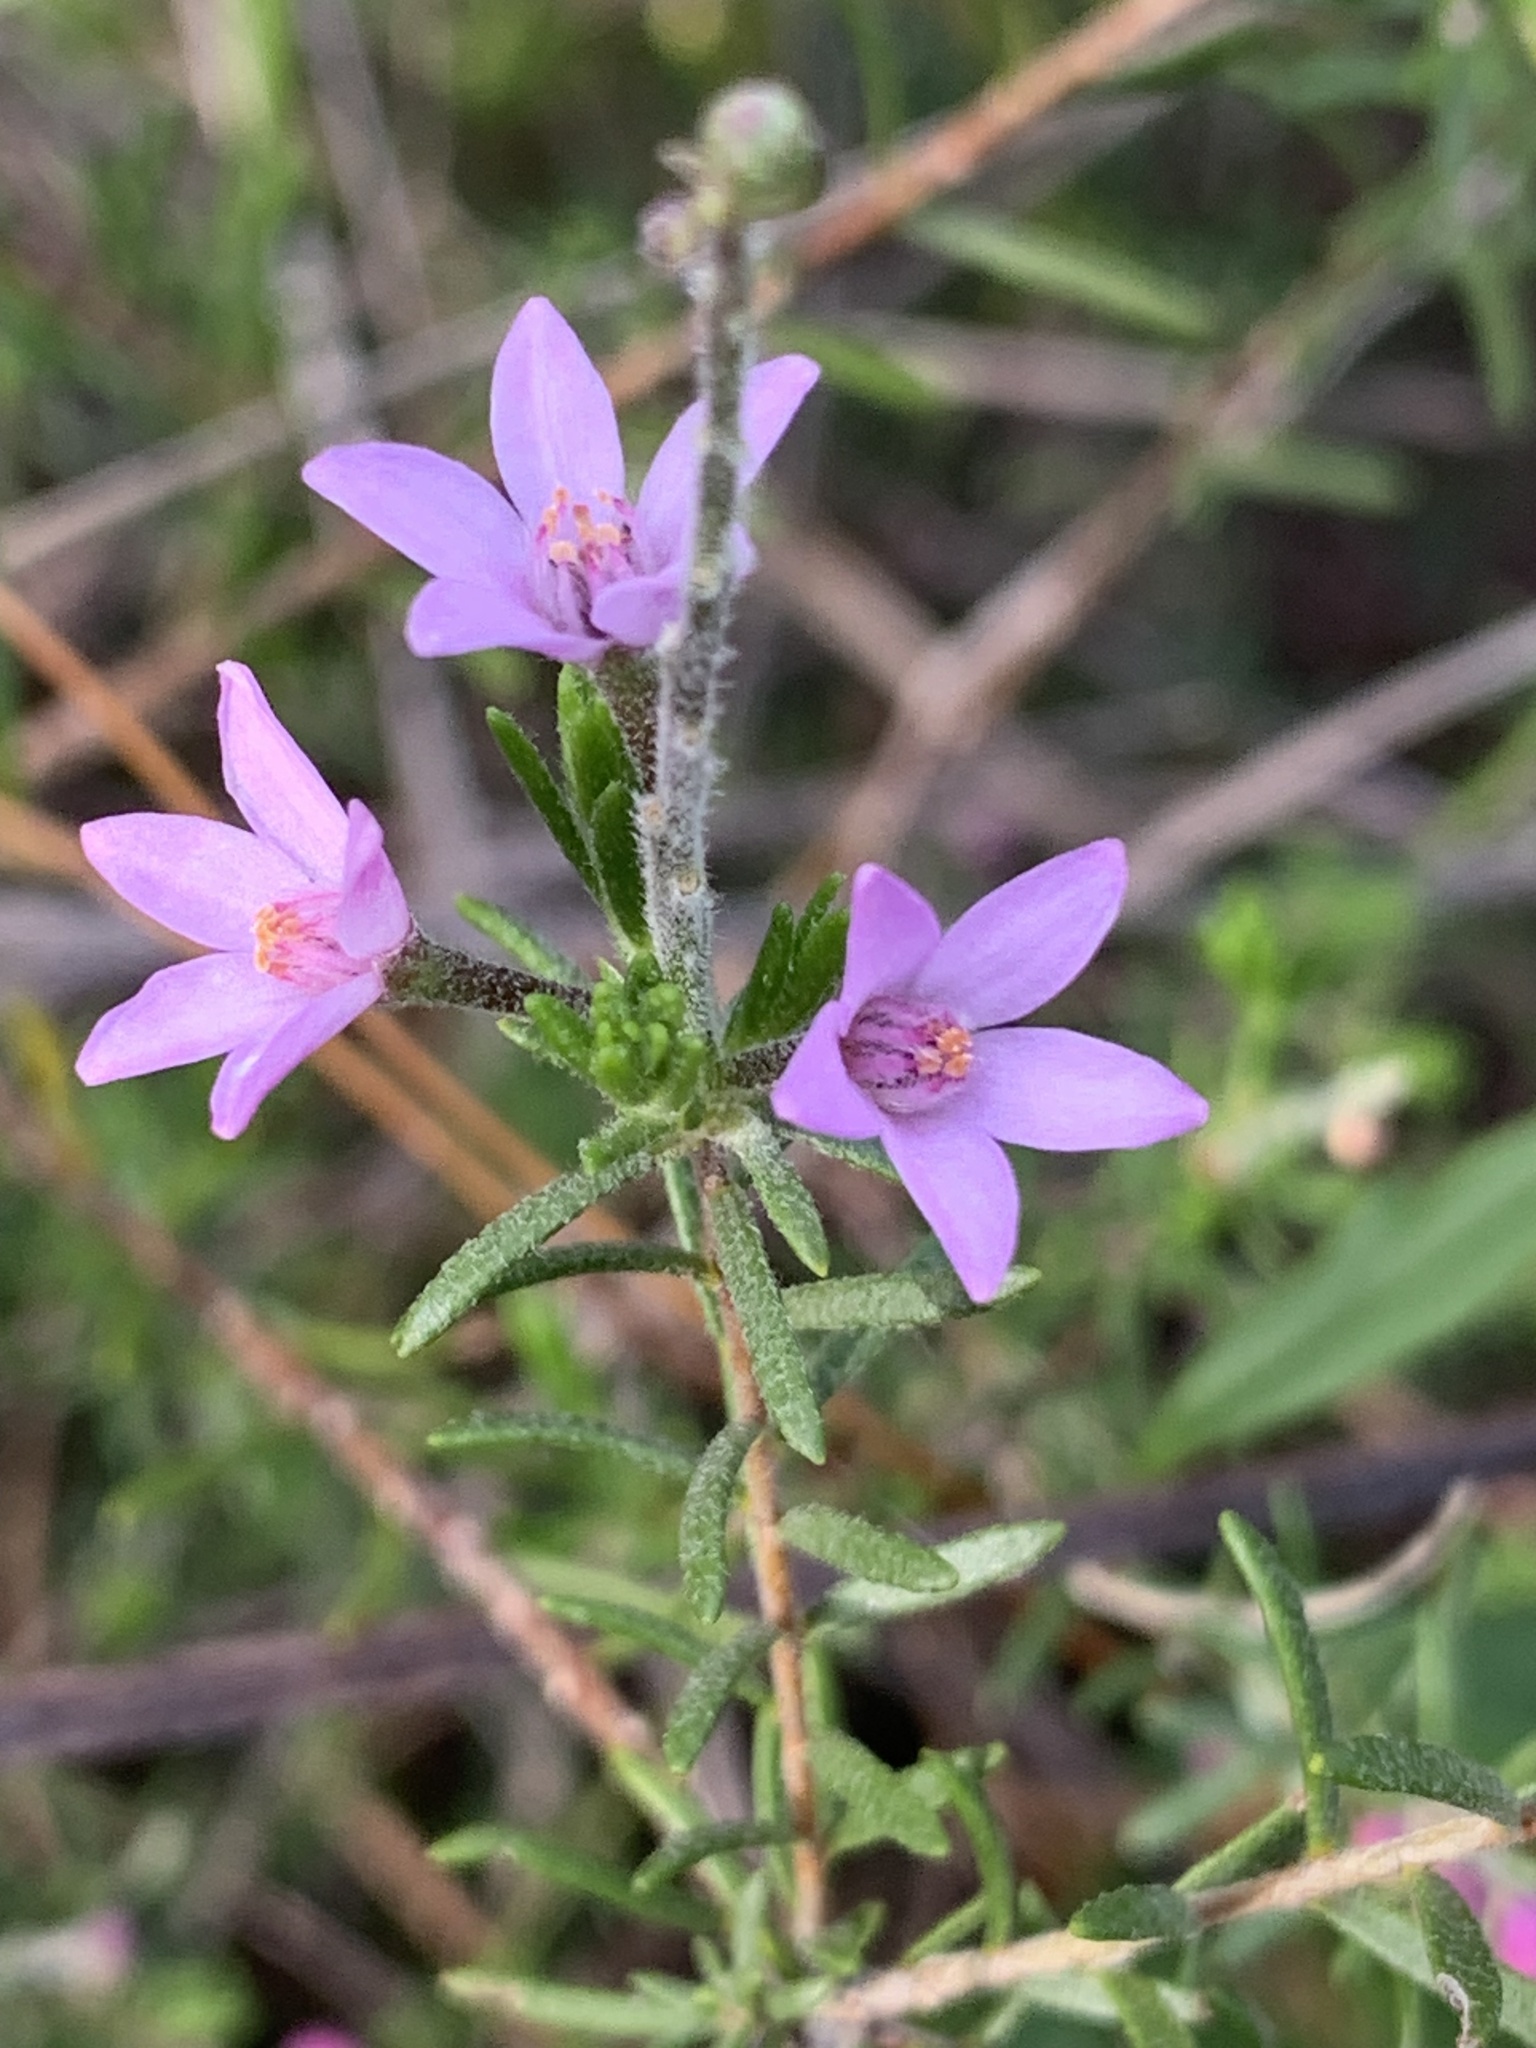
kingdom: Plantae
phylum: Tracheophyta
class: Magnoliopsida
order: Sapindales
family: Rutaceae
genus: Philotheca
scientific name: Philotheca spicata
